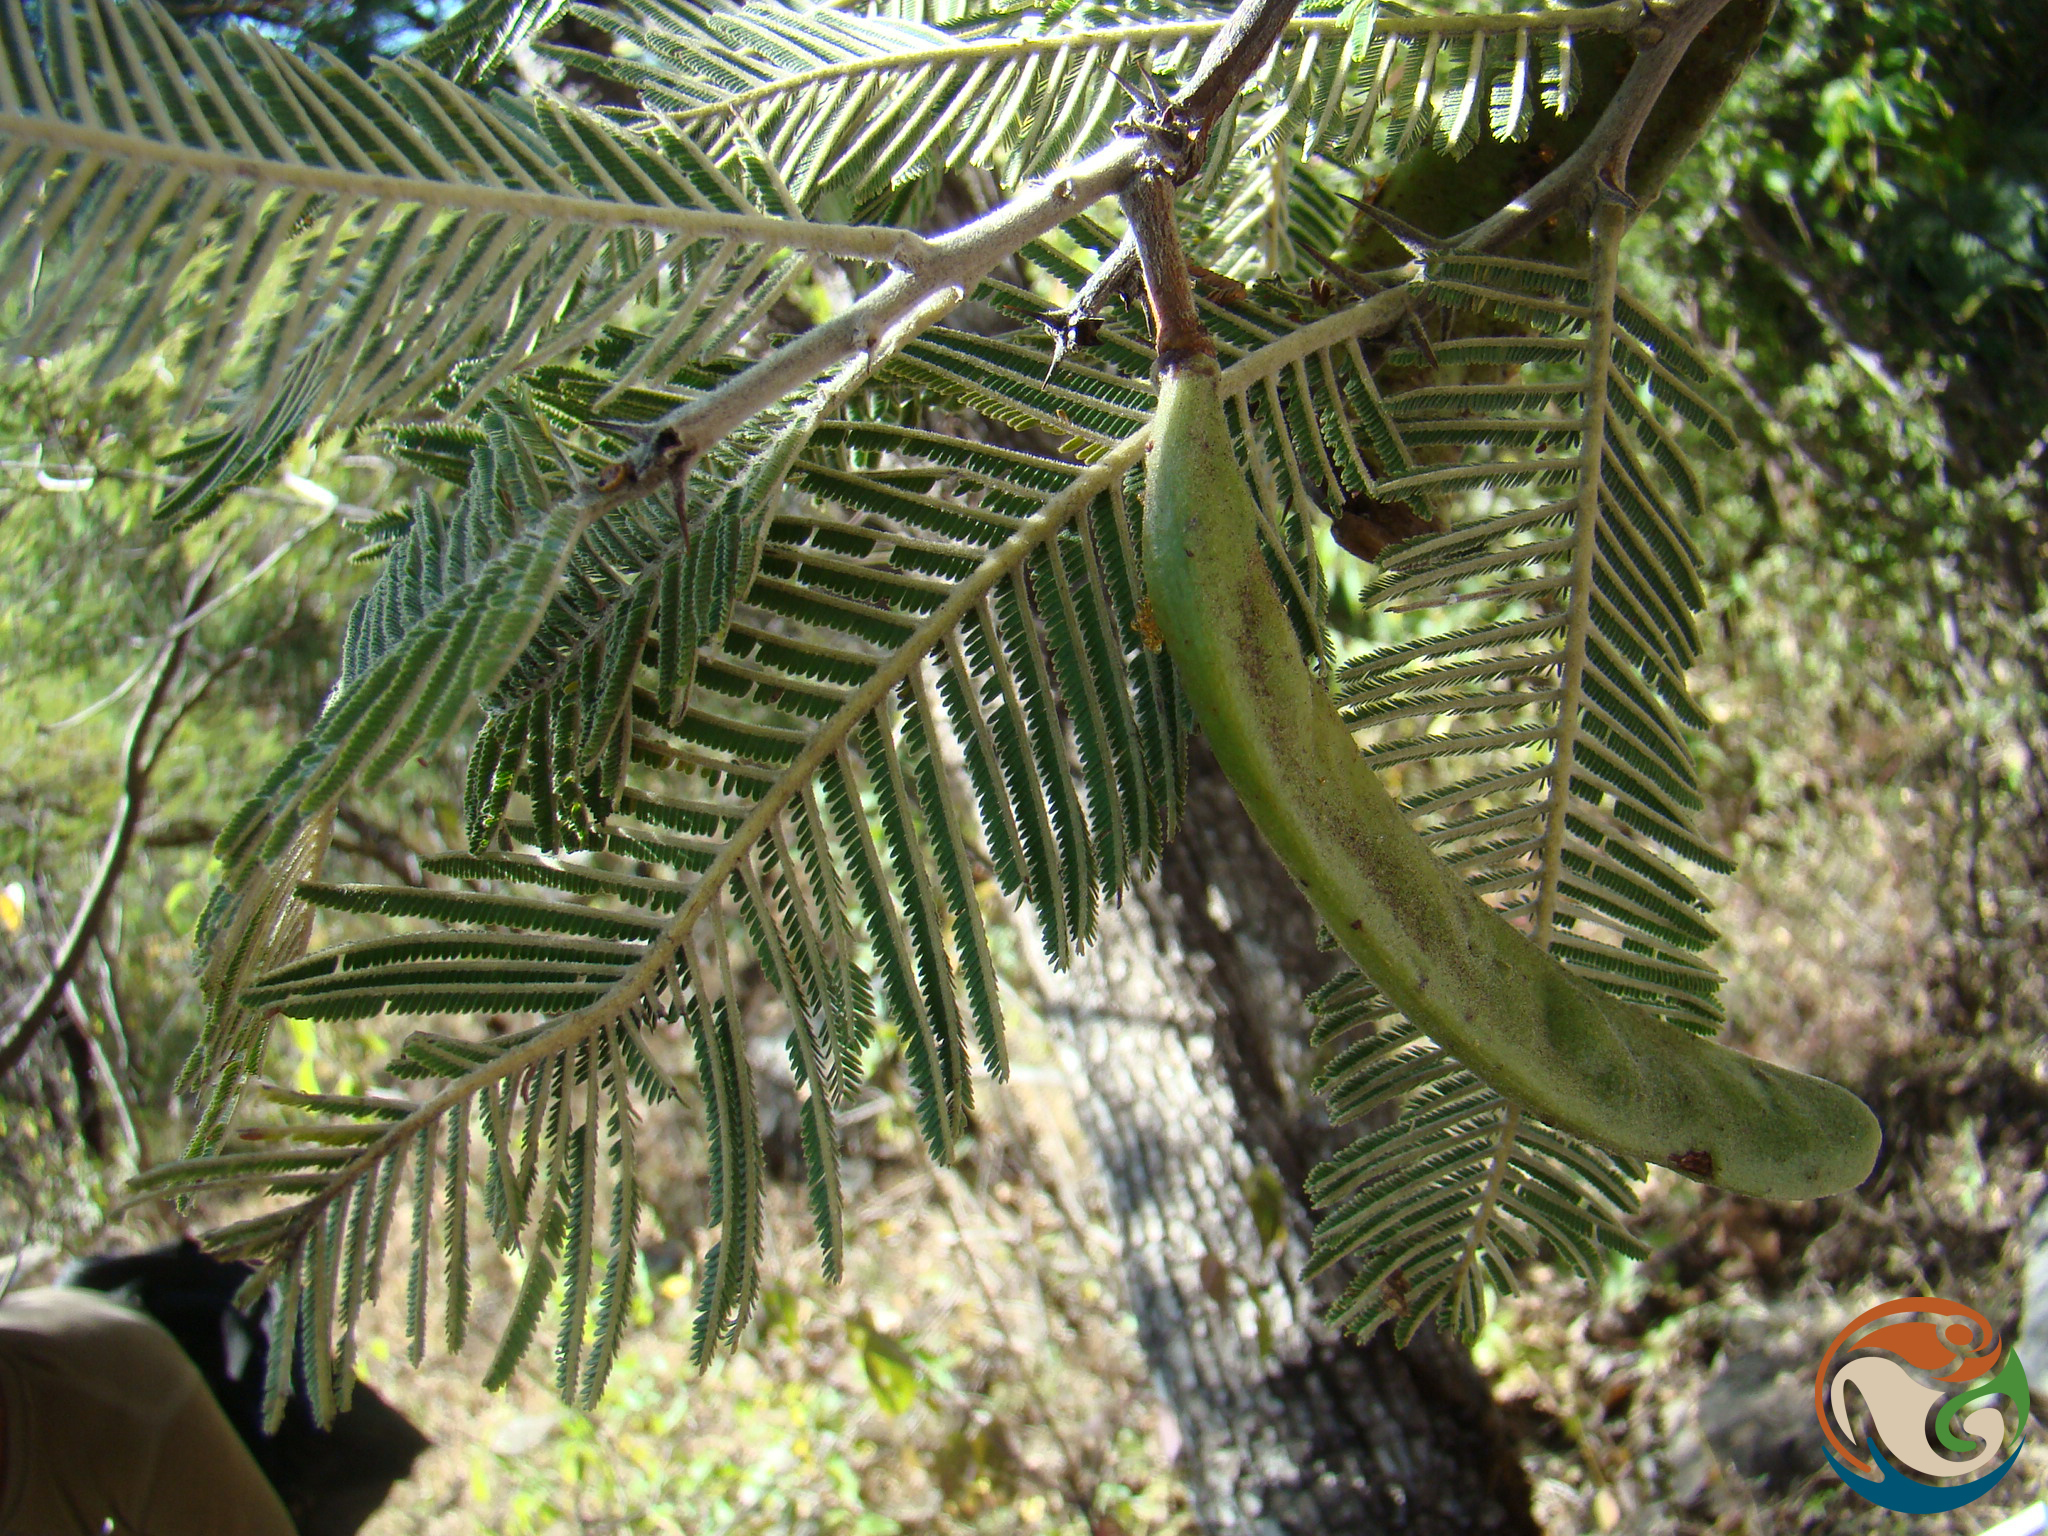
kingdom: Plantae
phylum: Tracheophyta
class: Magnoliopsida
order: Fabales
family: Fabaceae
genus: Vachellia
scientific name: Vachellia pennatula
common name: Fern-leaf acacia
